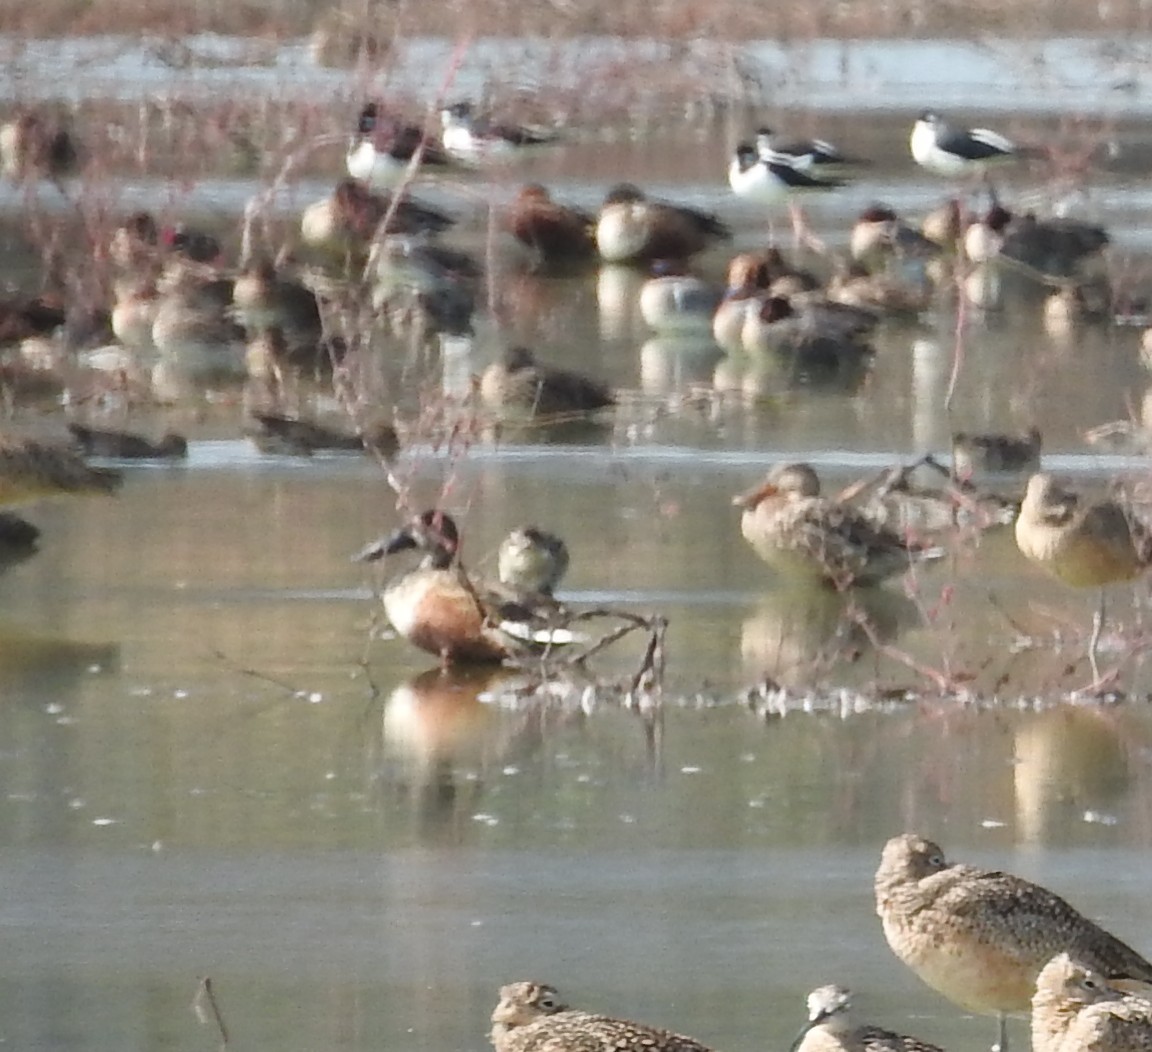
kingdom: Animalia
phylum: Chordata
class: Aves
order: Anseriformes
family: Anatidae
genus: Spatula
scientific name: Spatula clypeata
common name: Northern shoveler
